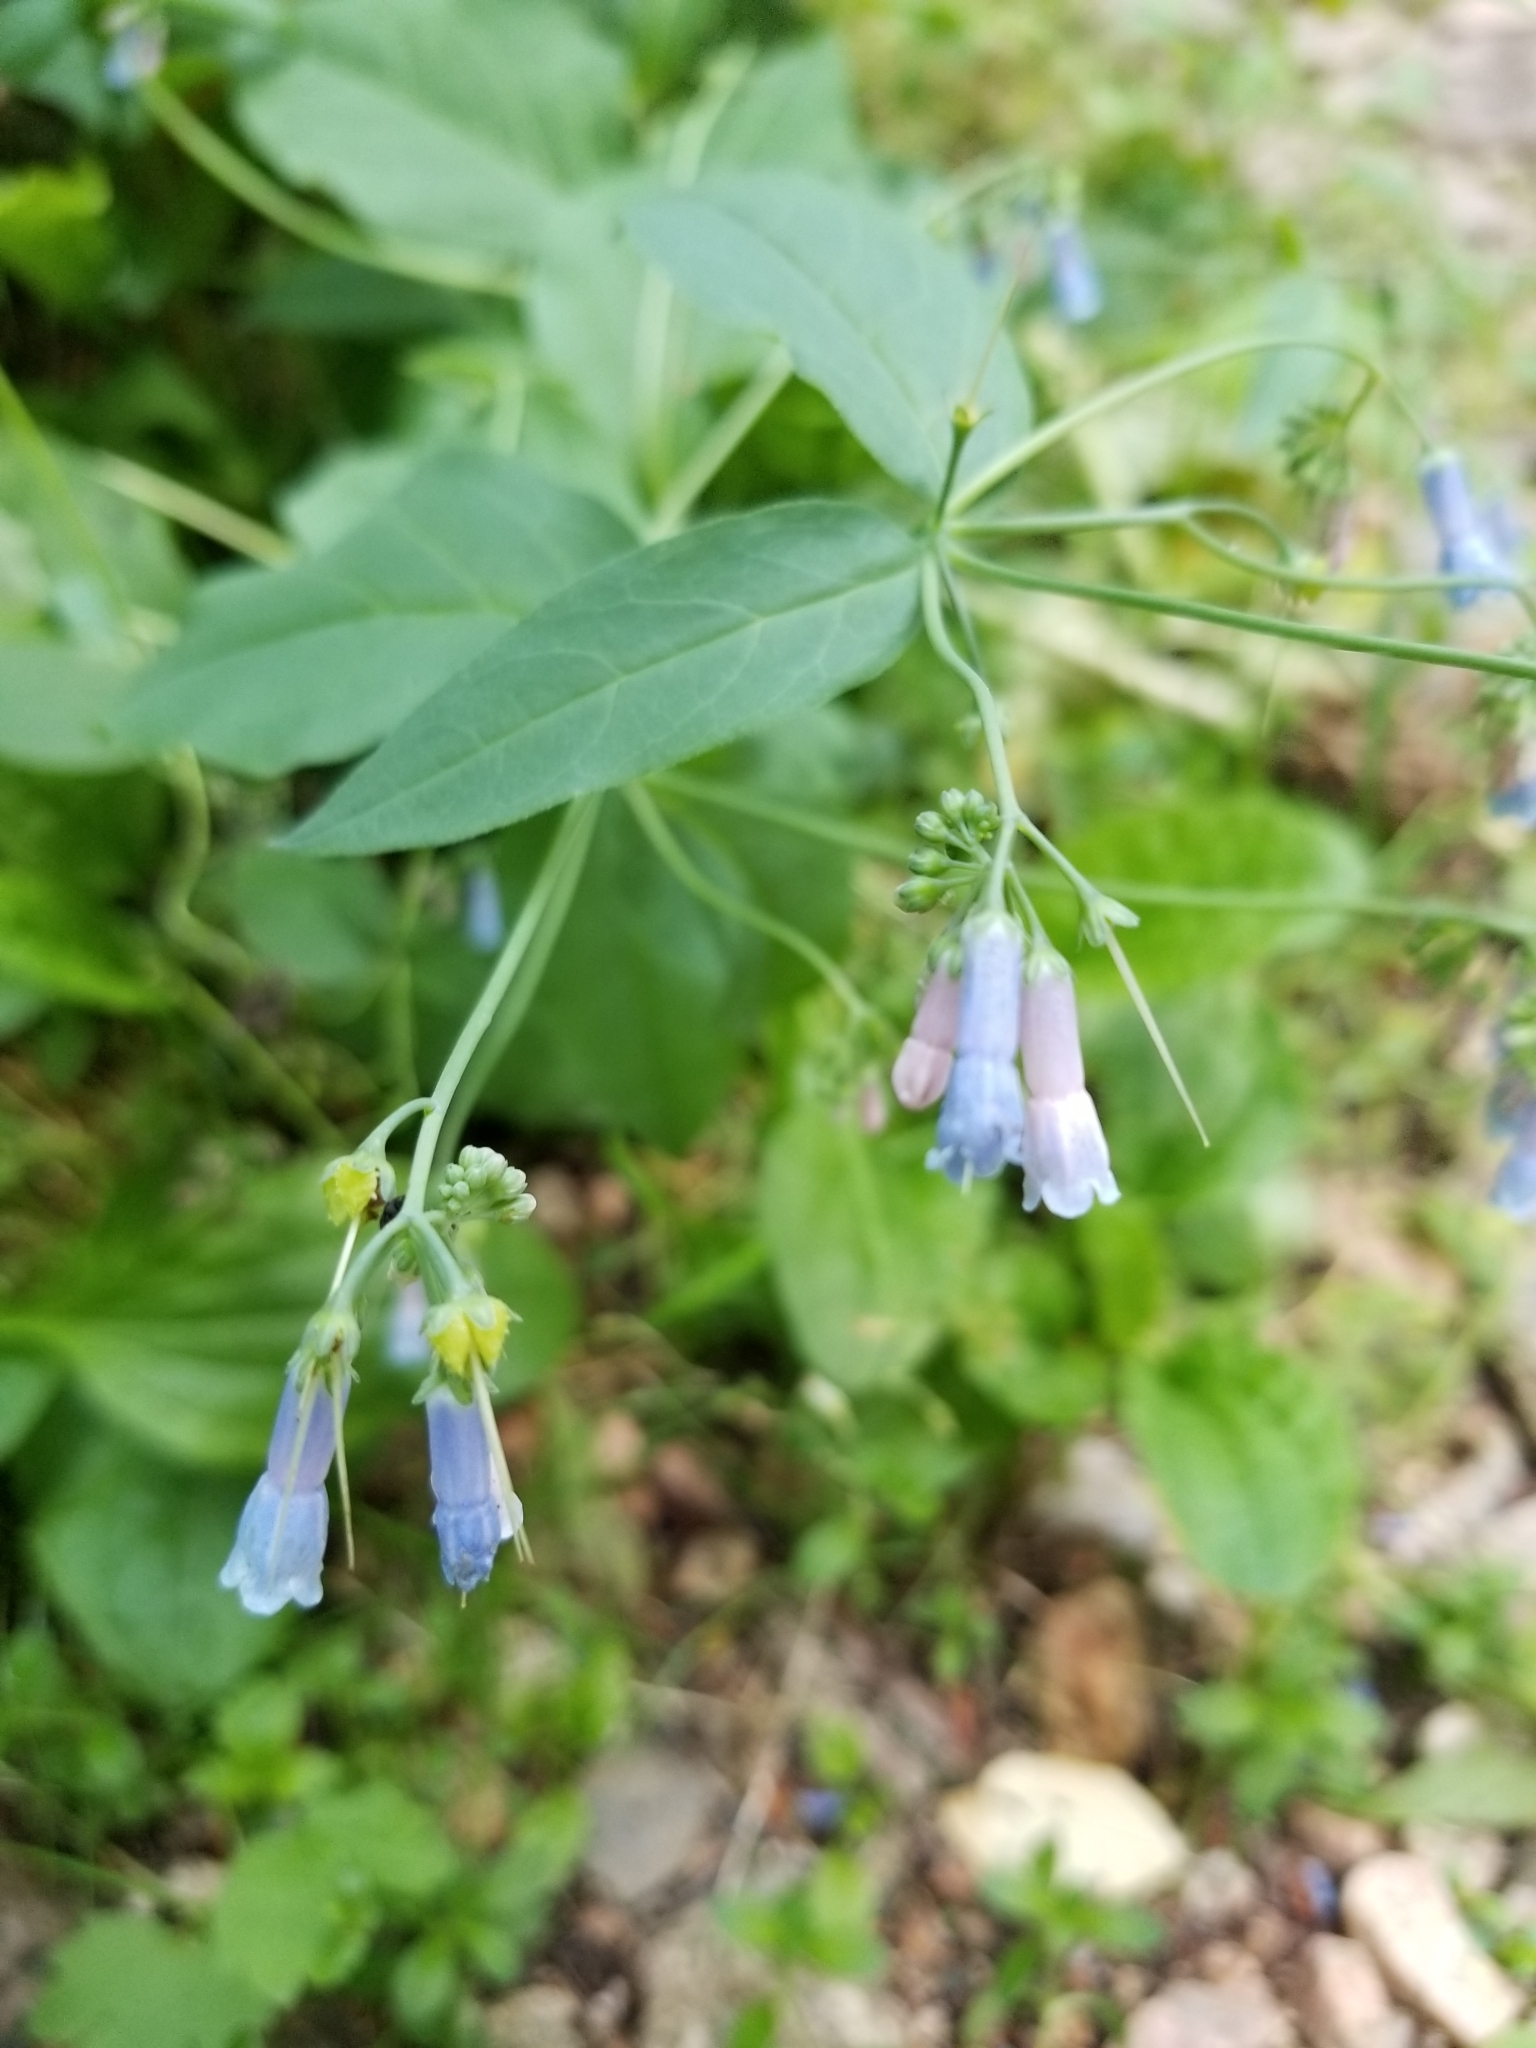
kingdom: Plantae
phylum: Tracheophyta
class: Magnoliopsida
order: Boraginales
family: Boraginaceae
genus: Mertensia
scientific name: Mertensia ciliata
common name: Tall chiming-bells
